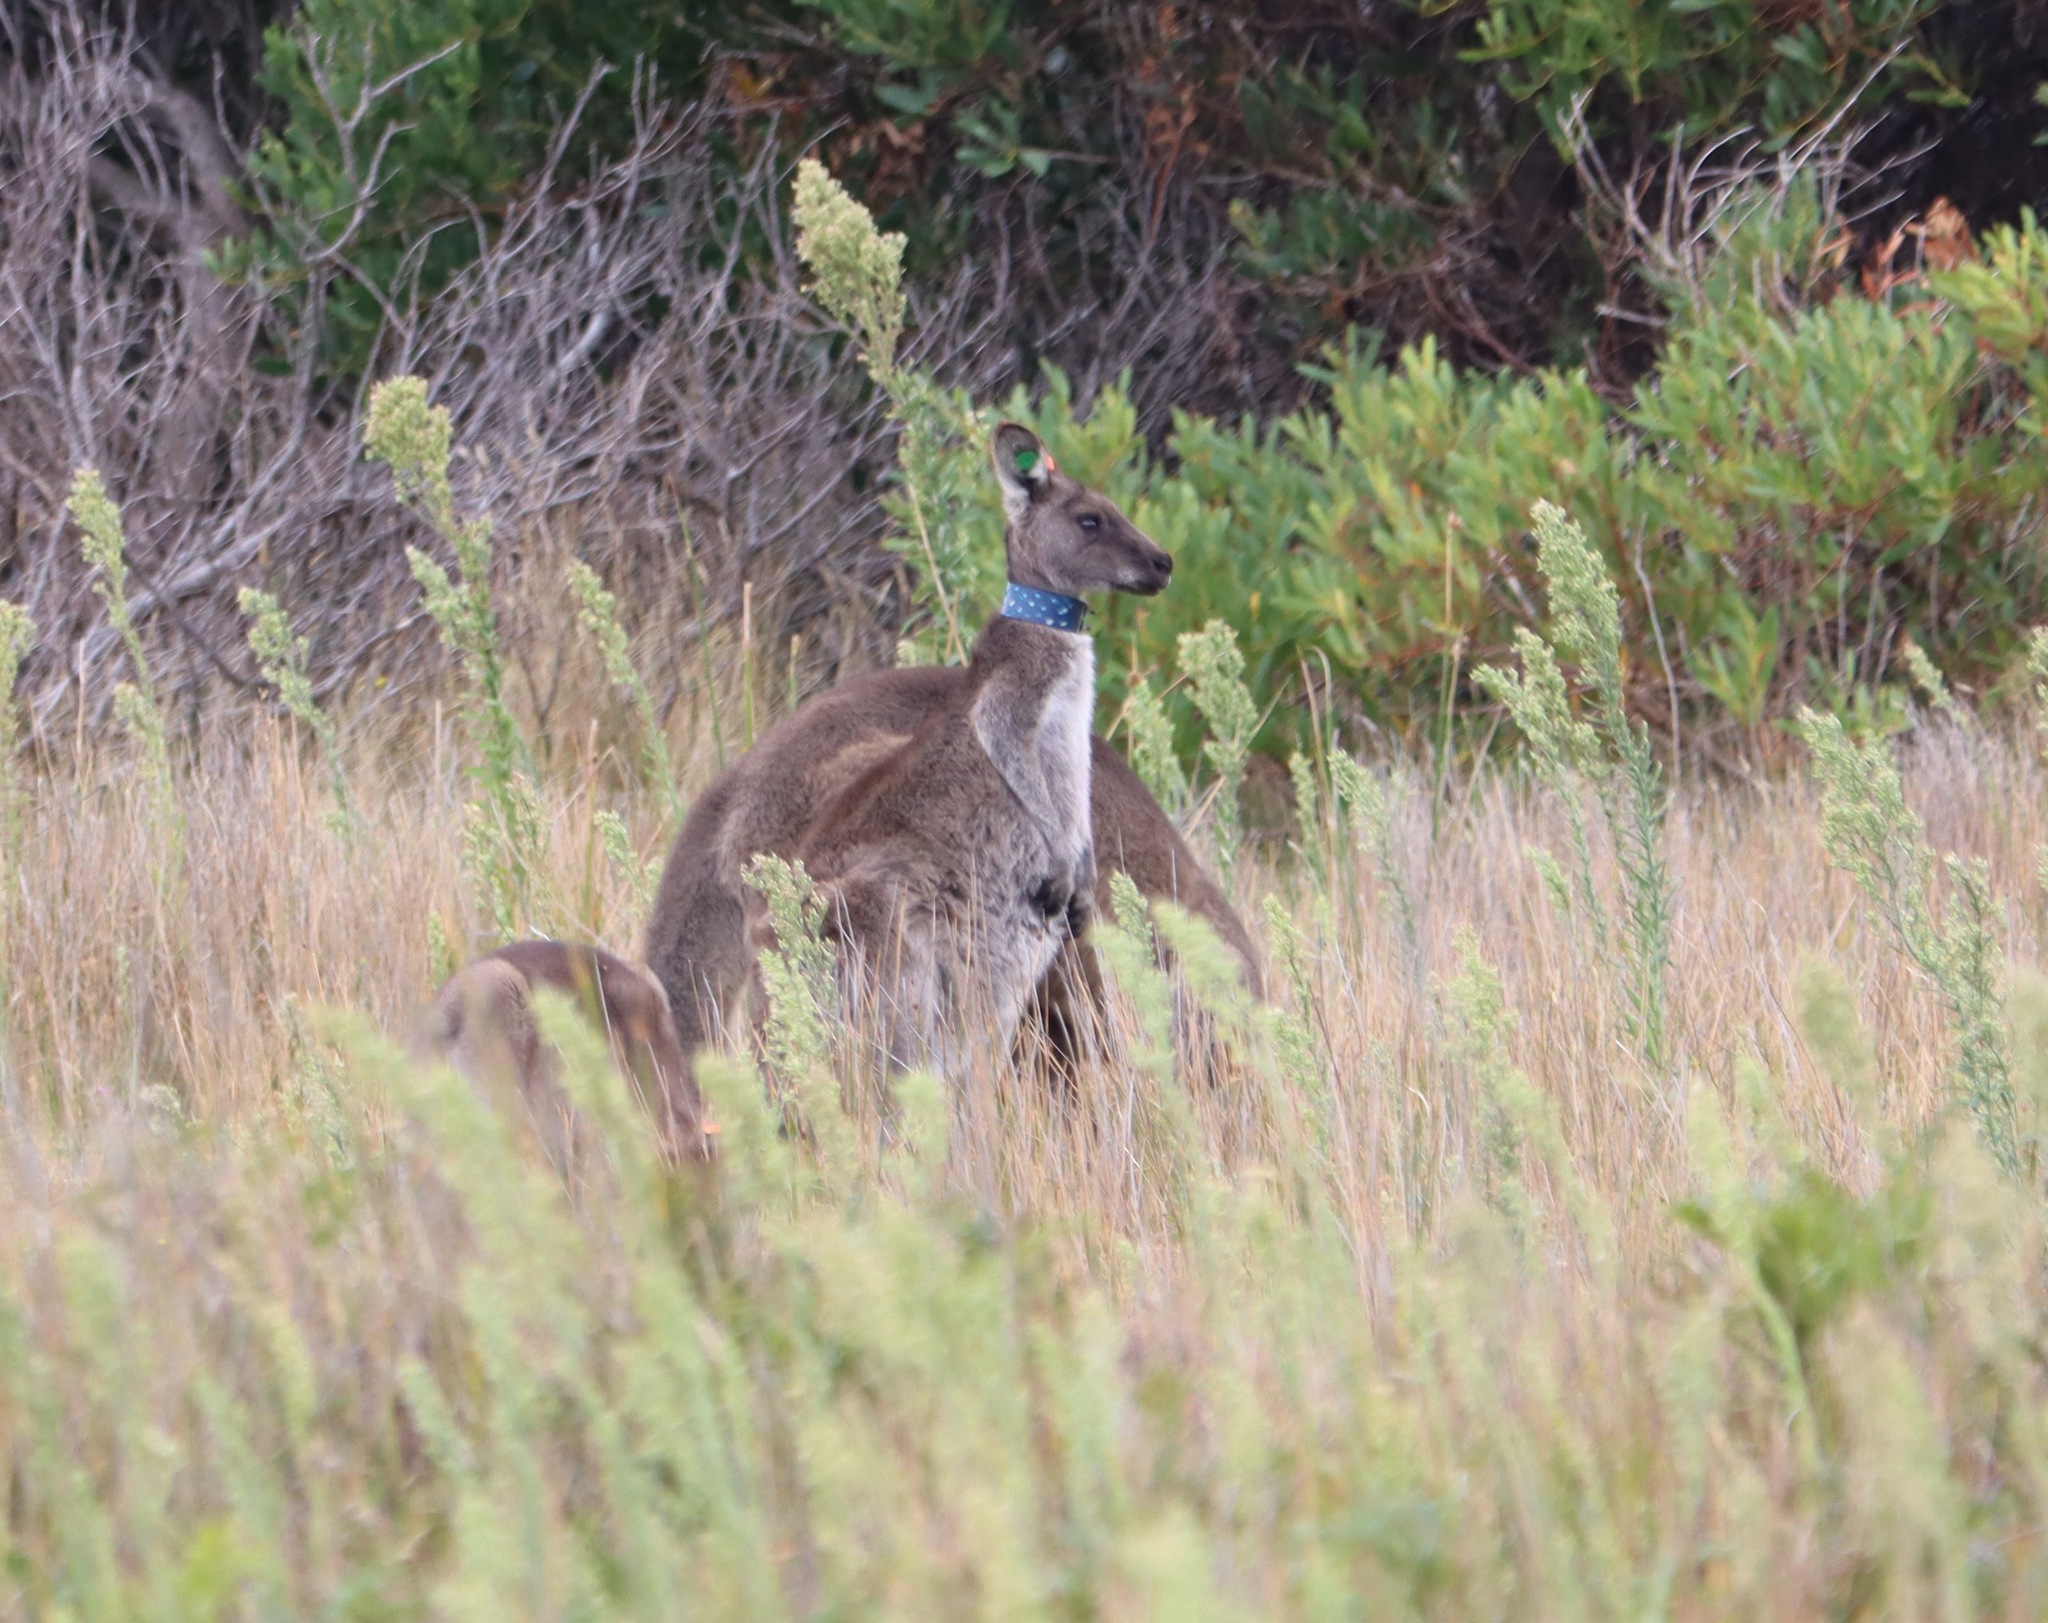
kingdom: Animalia
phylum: Chordata
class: Mammalia
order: Diprotodontia
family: Macropodidae
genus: Macropus
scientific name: Macropus giganteus
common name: Eastern grey kangaroo
